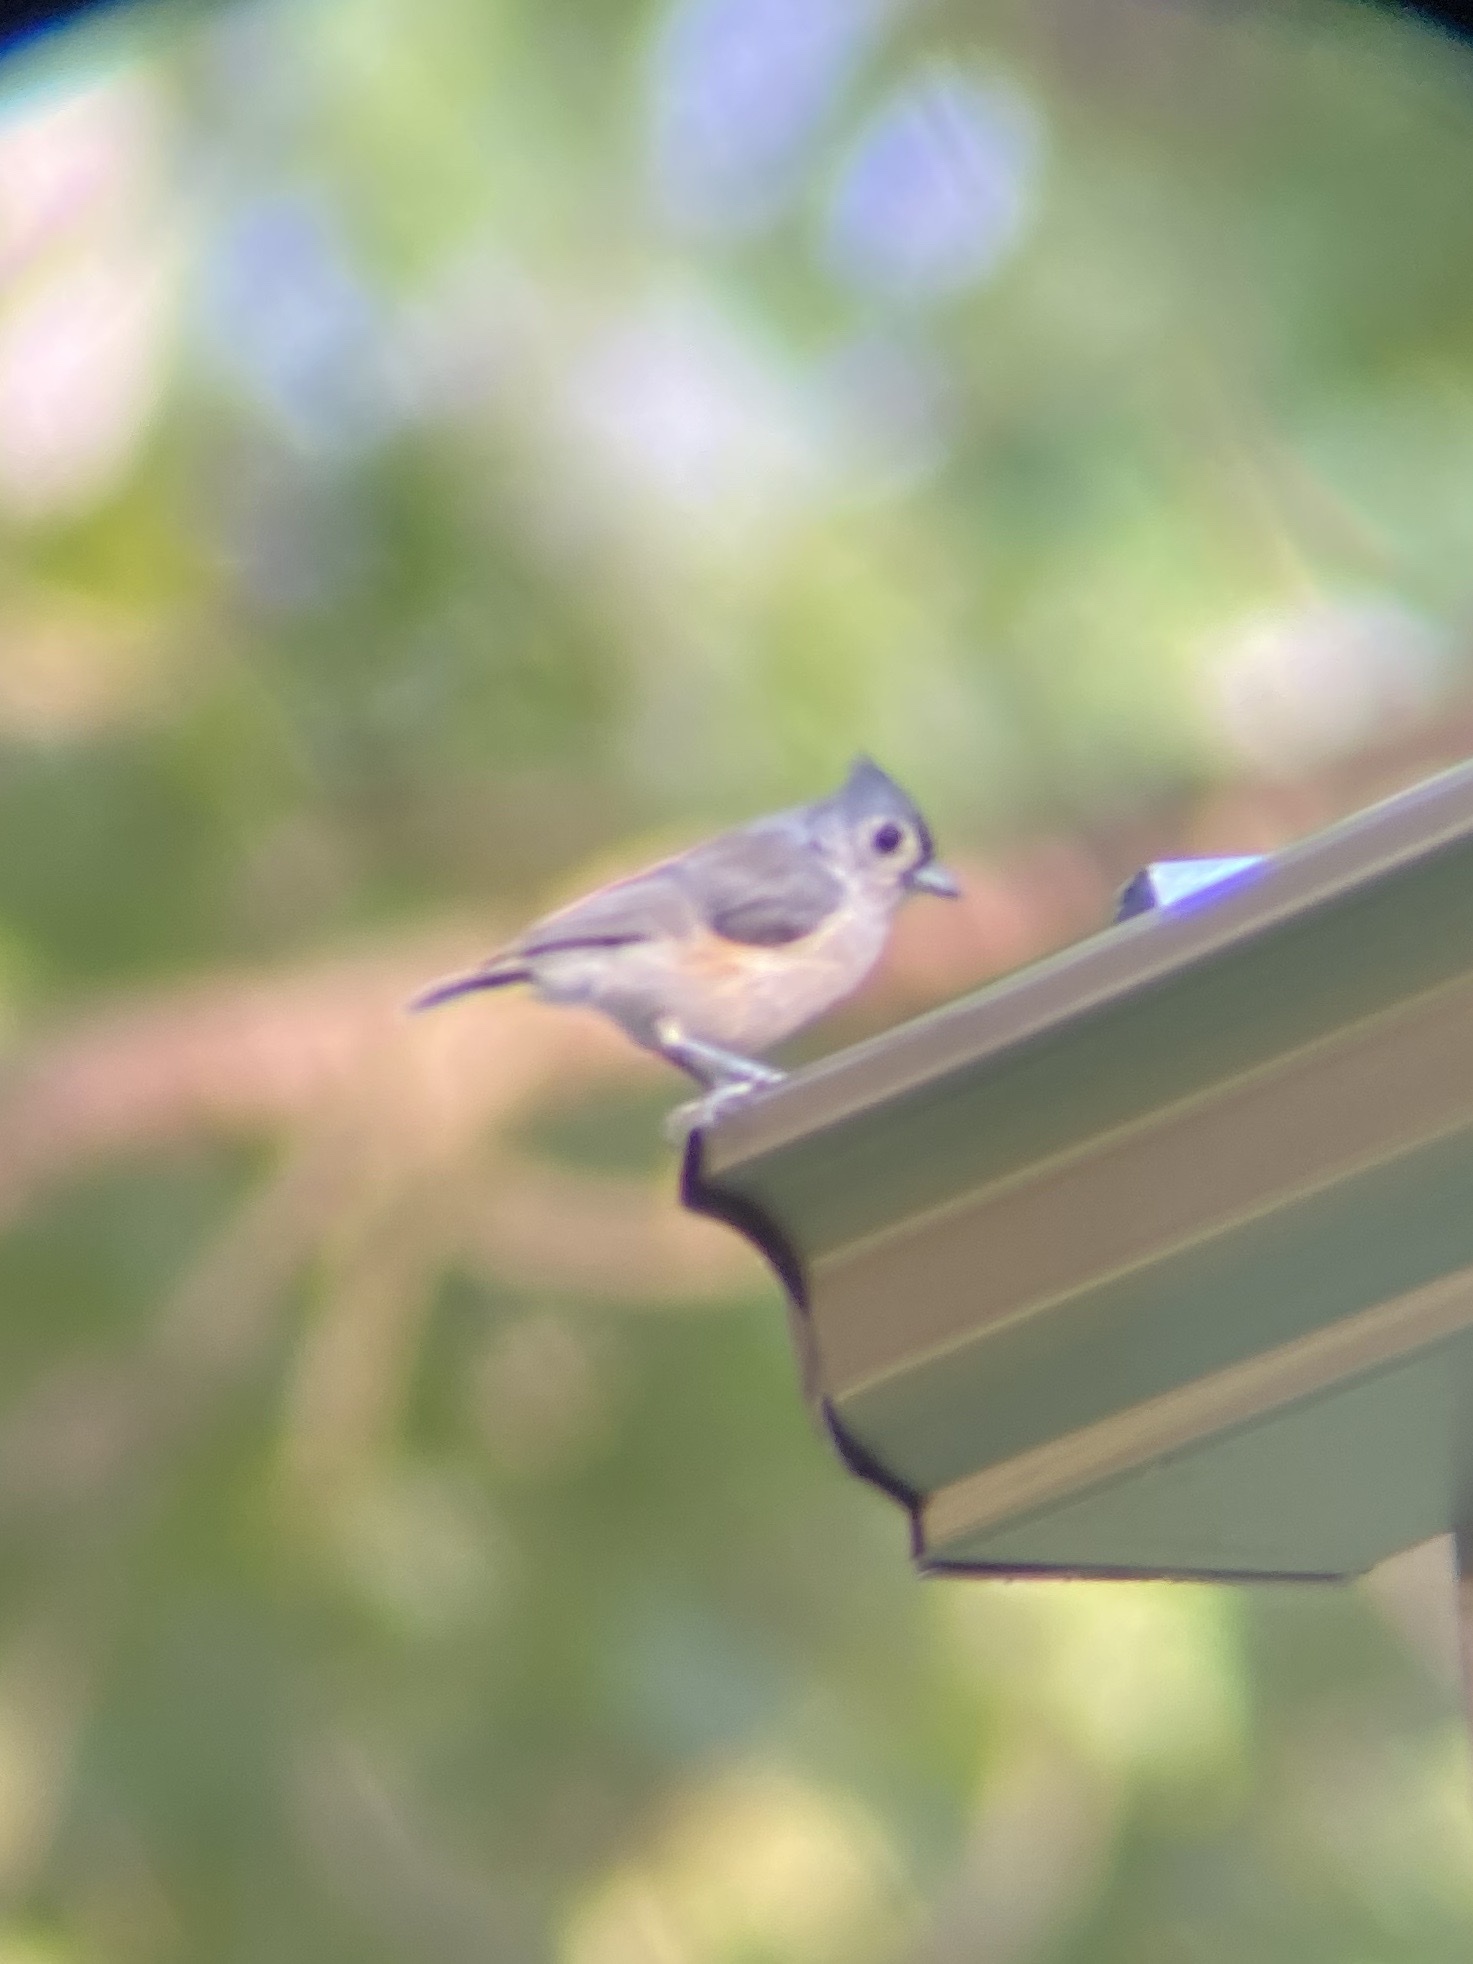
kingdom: Animalia
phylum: Chordata
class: Aves
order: Passeriformes
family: Paridae
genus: Baeolophus
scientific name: Baeolophus bicolor
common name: Tufted titmouse
